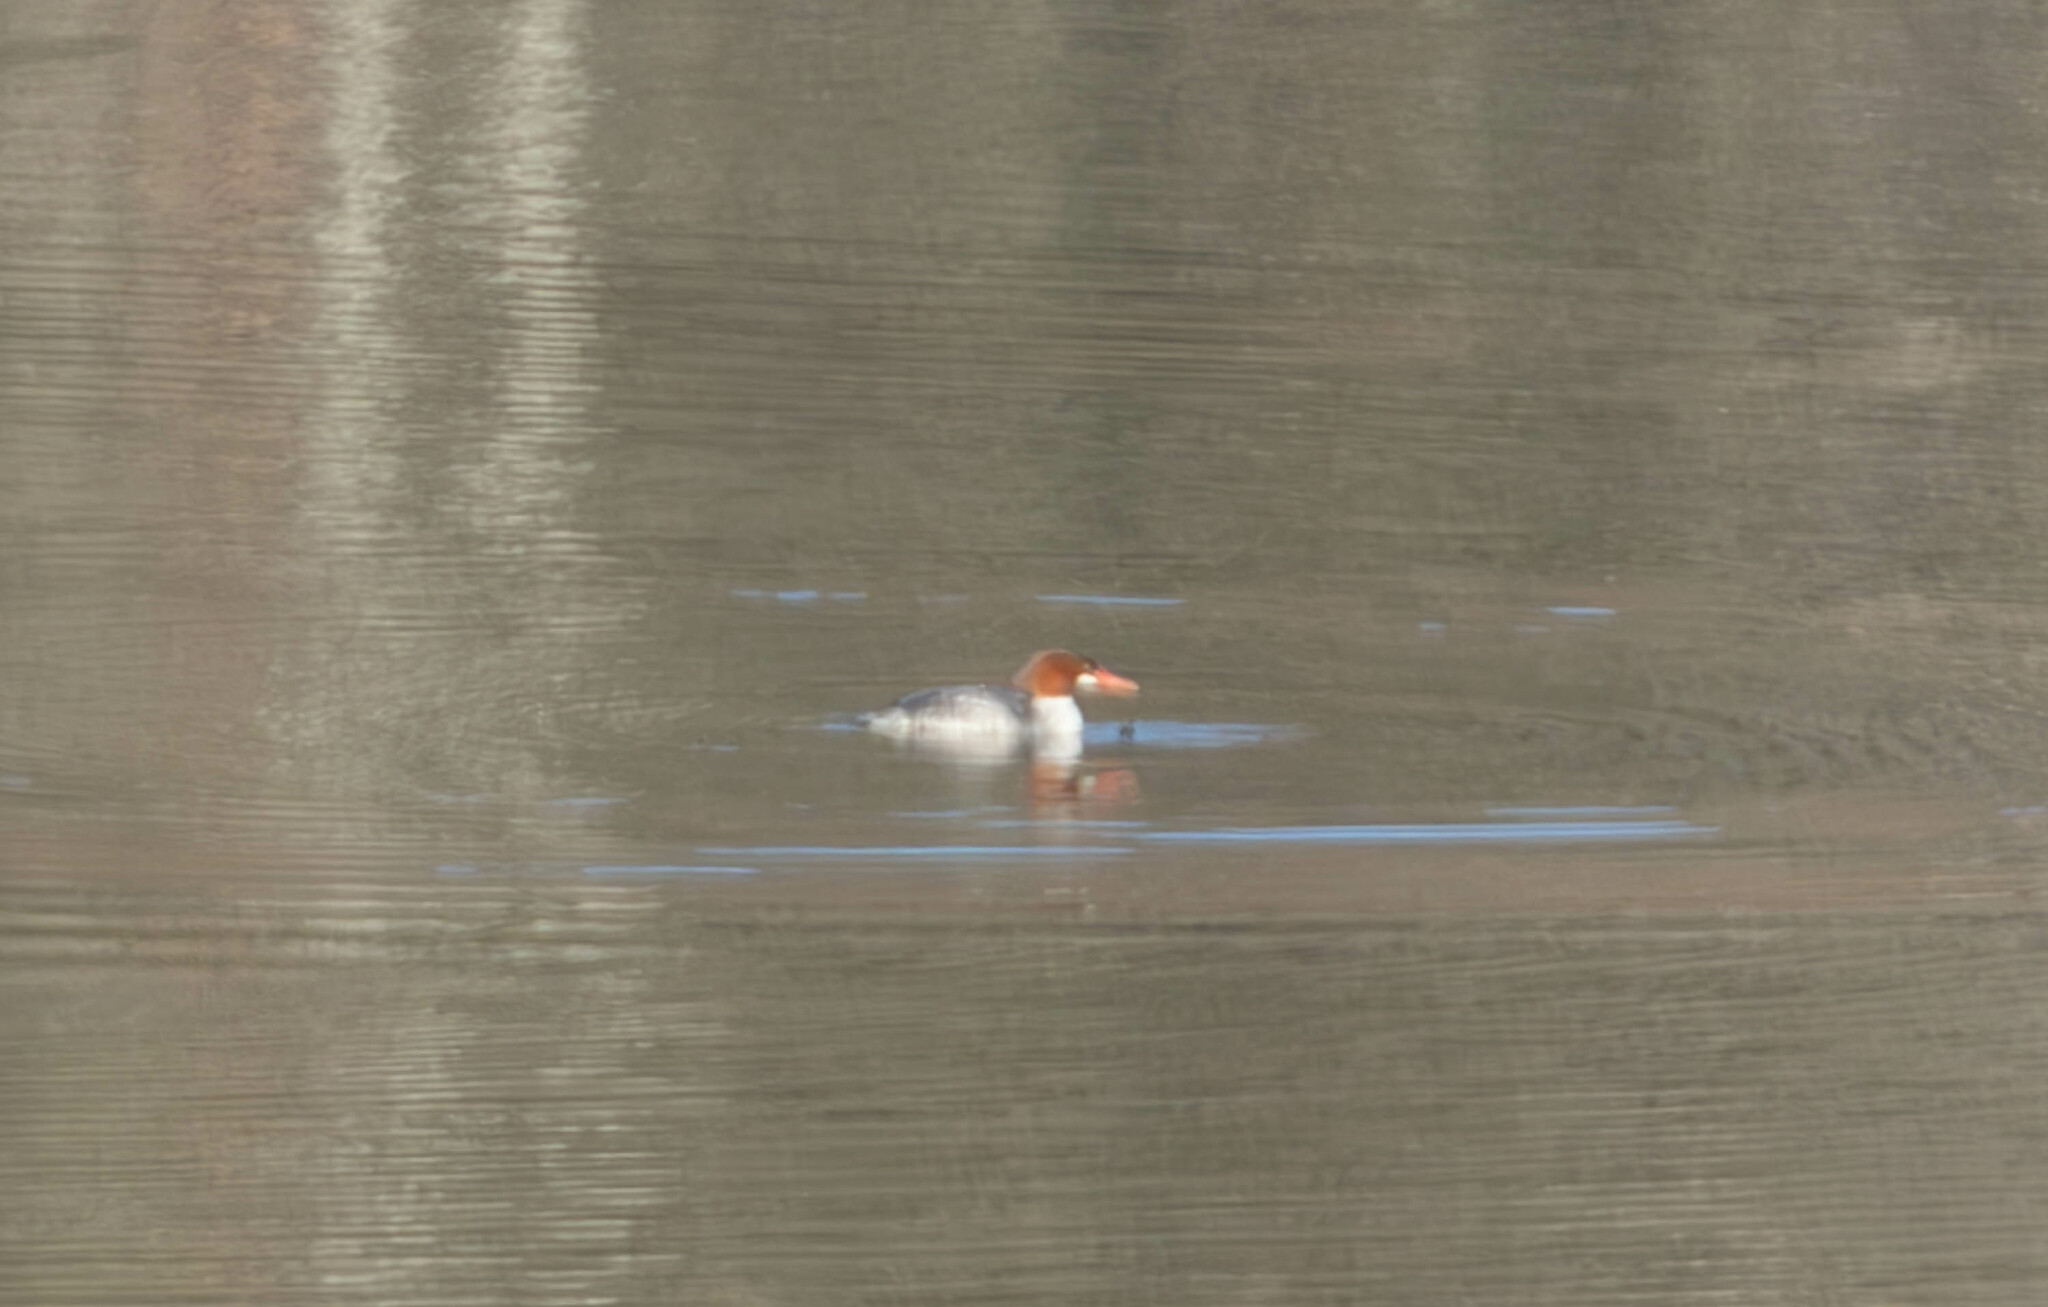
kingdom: Animalia
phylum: Chordata
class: Aves
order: Anseriformes
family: Anatidae
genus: Mergus
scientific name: Mergus merganser
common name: Common merganser
